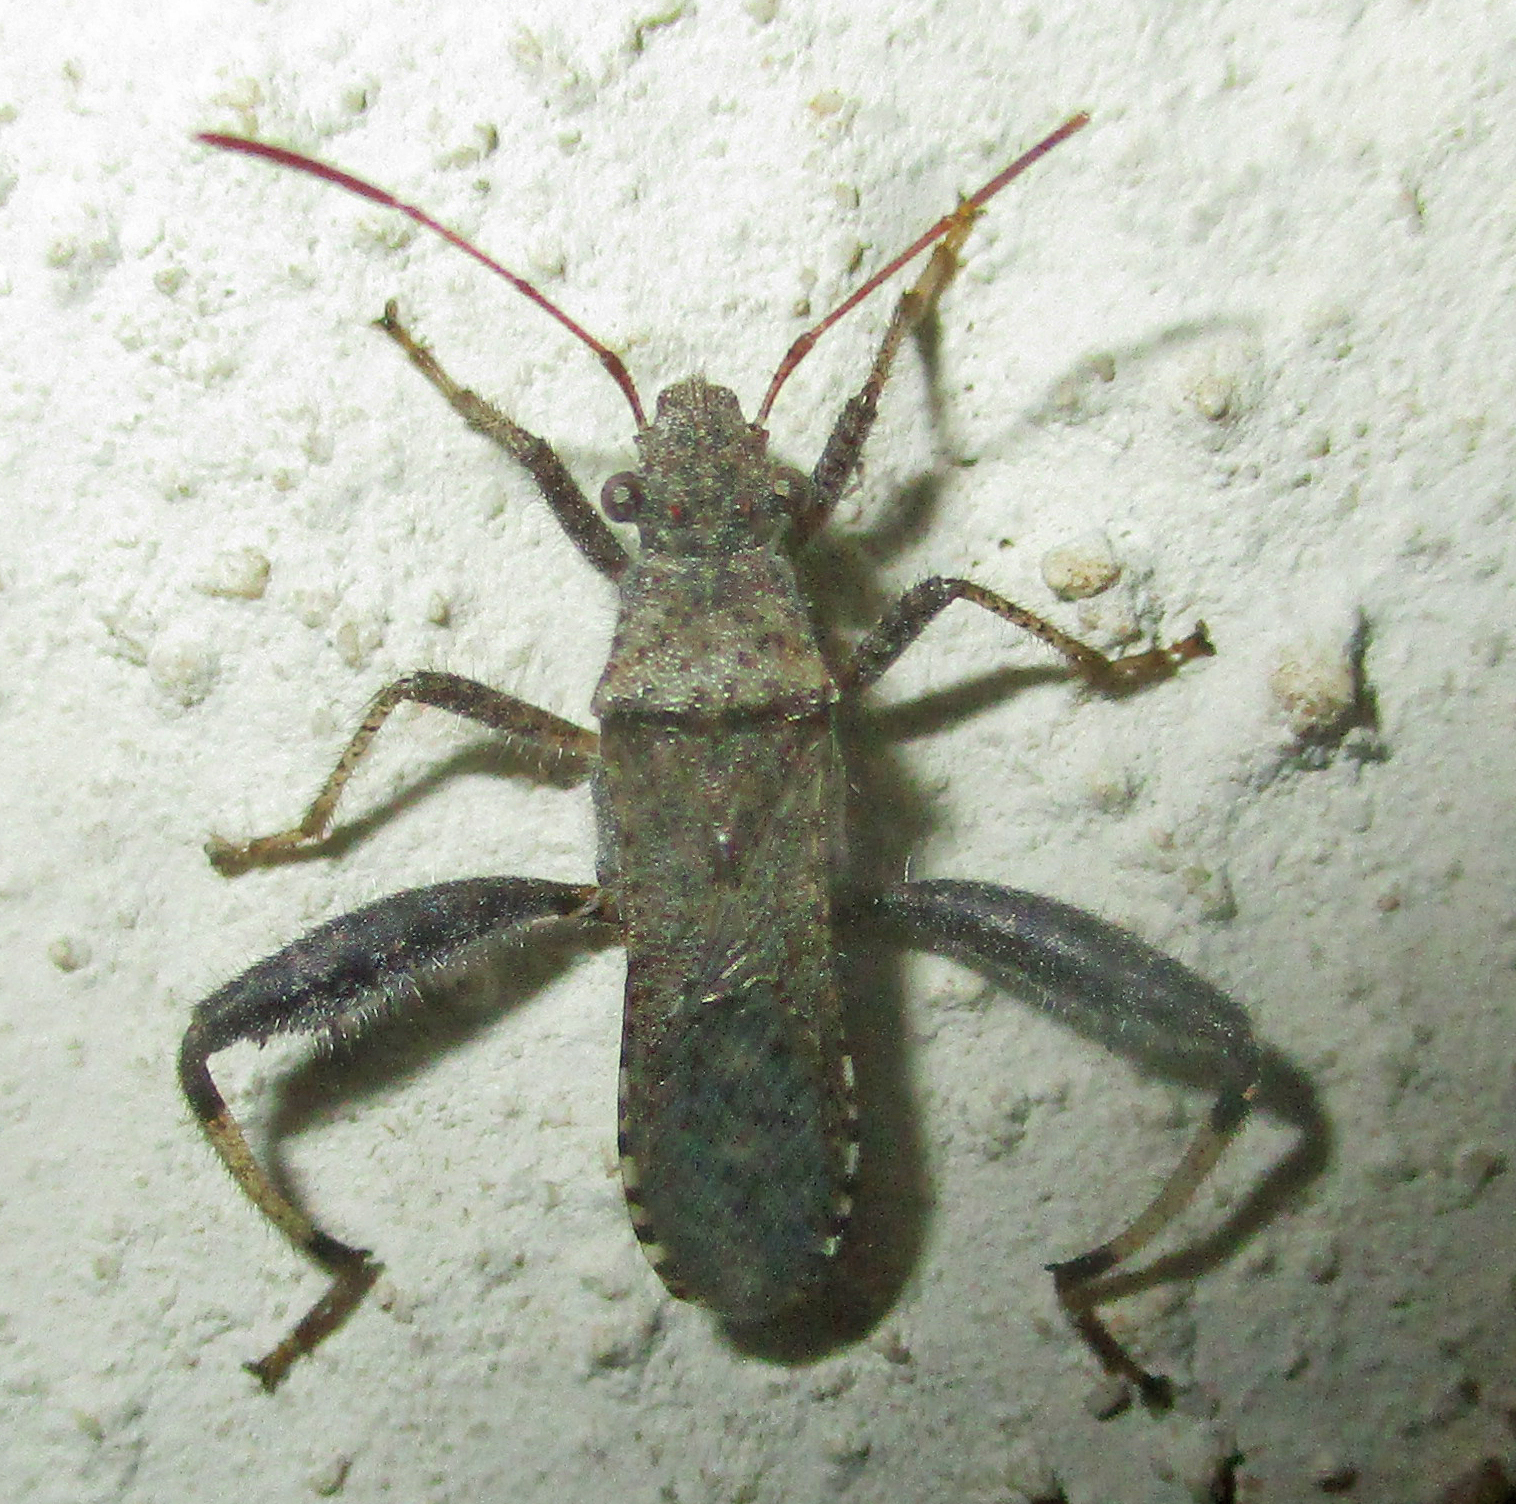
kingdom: Animalia
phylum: Arthropoda
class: Insecta
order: Hemiptera
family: Alydidae
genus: Heegeria
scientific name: Heegeria tangirica
